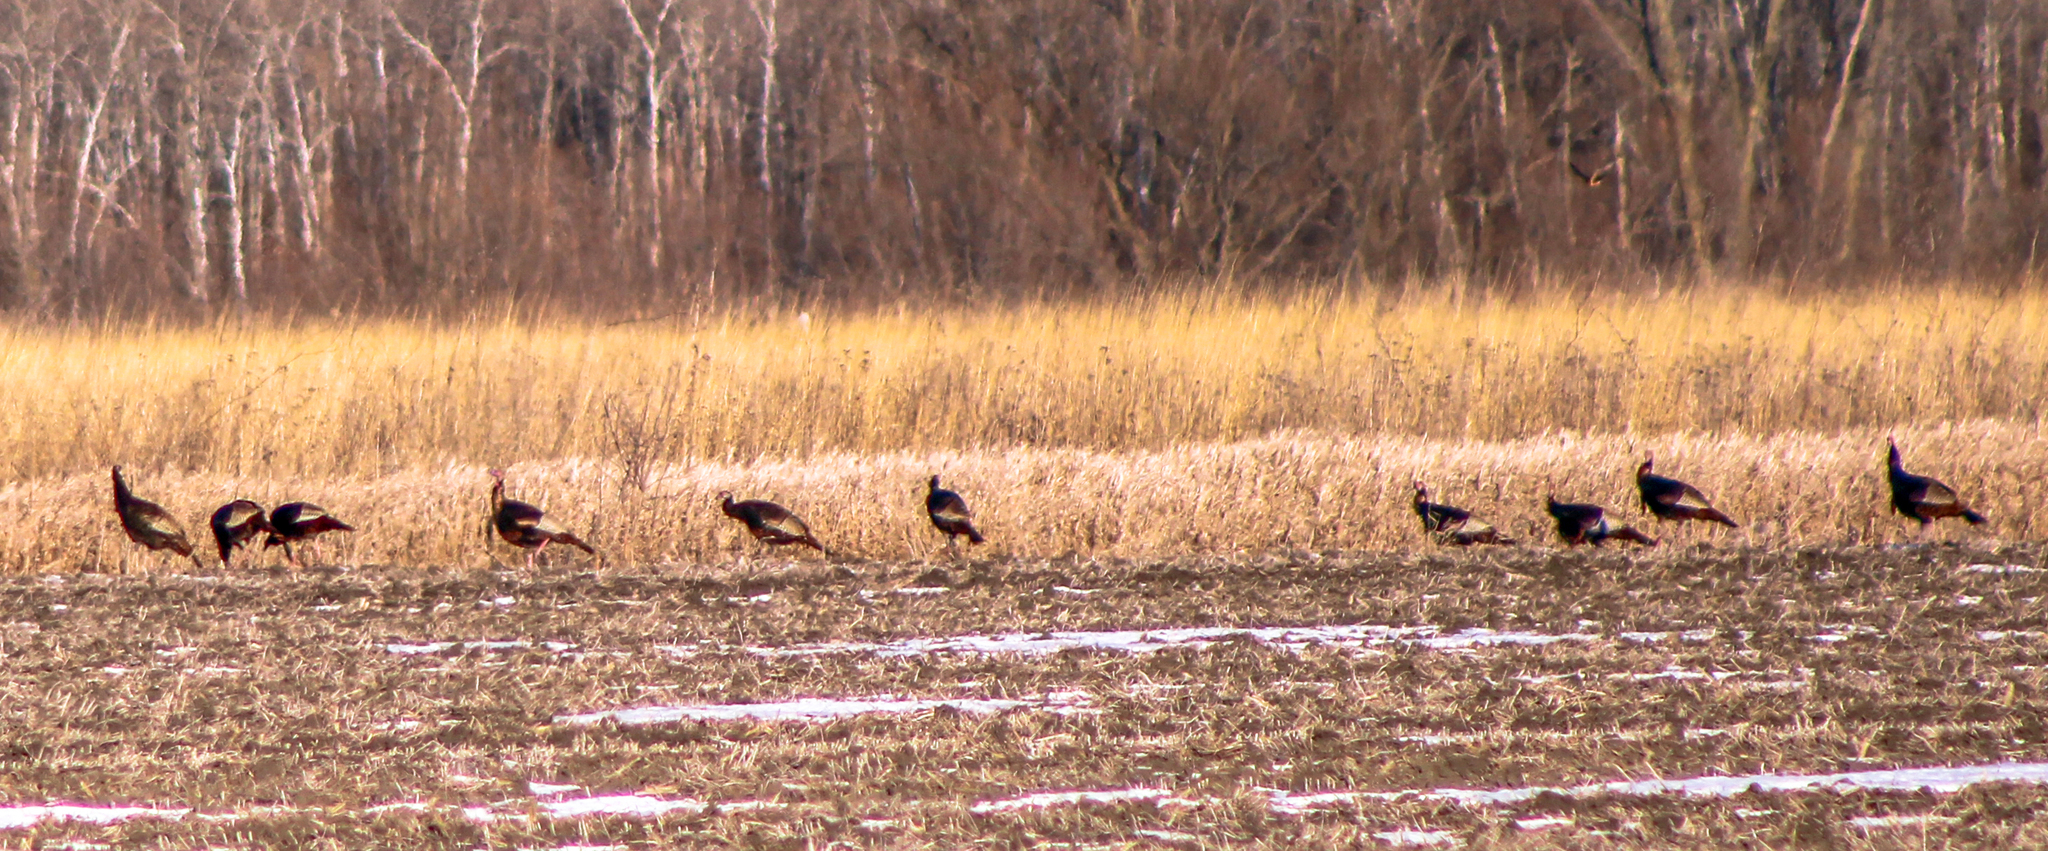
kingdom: Animalia
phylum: Chordata
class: Aves
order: Galliformes
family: Phasianidae
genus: Meleagris
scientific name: Meleagris gallopavo
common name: Wild turkey
